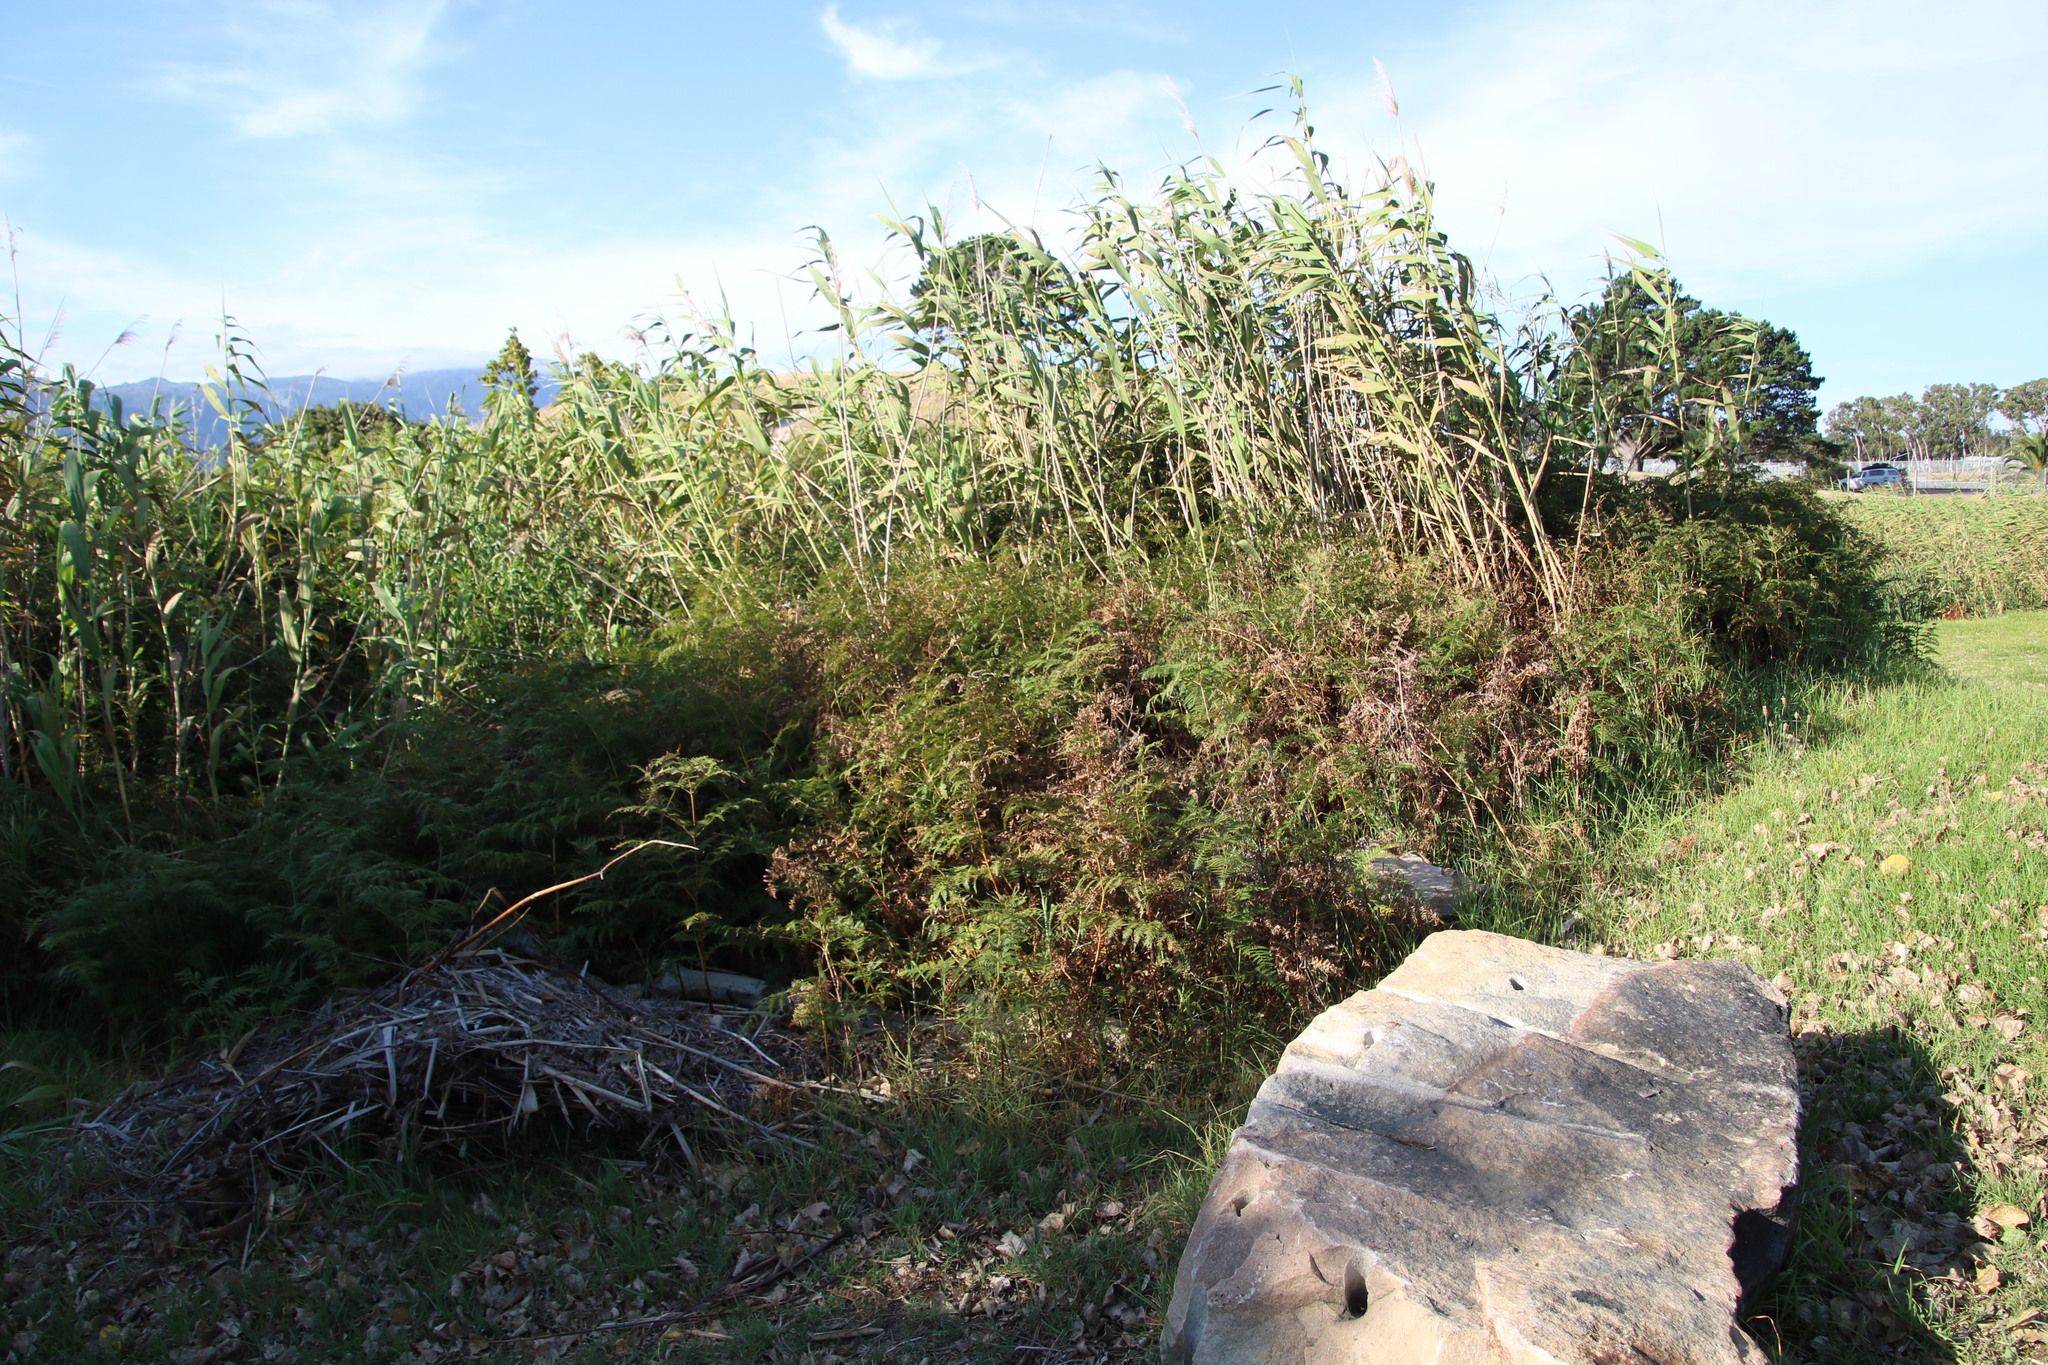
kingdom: Plantae
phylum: Tracheophyta
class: Polypodiopsida
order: Polypodiales
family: Dennstaedtiaceae
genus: Pteridium
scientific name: Pteridium aquilinum
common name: Bracken
